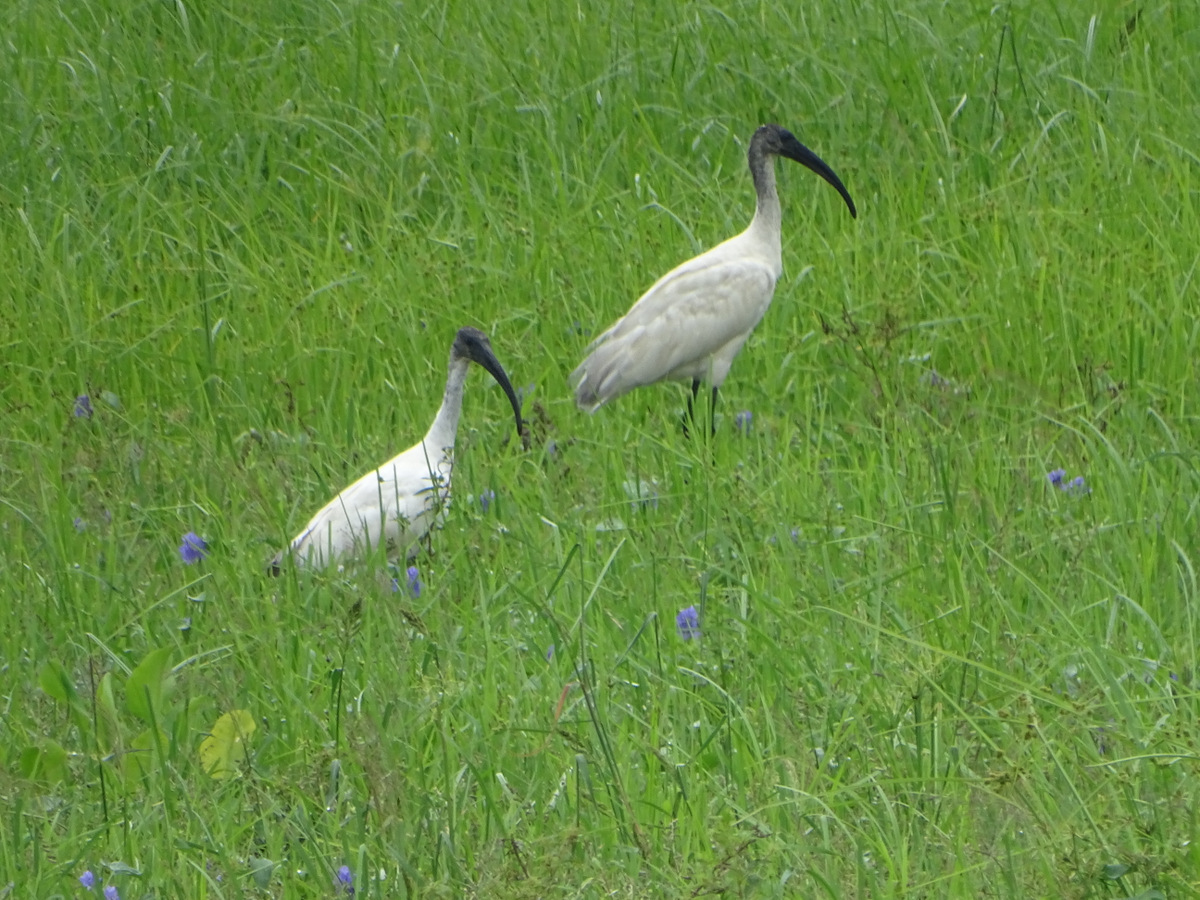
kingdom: Animalia
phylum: Chordata
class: Aves
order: Pelecaniformes
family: Threskiornithidae
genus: Threskiornis
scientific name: Threskiornis melanocephalus
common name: Black-headed ibis
